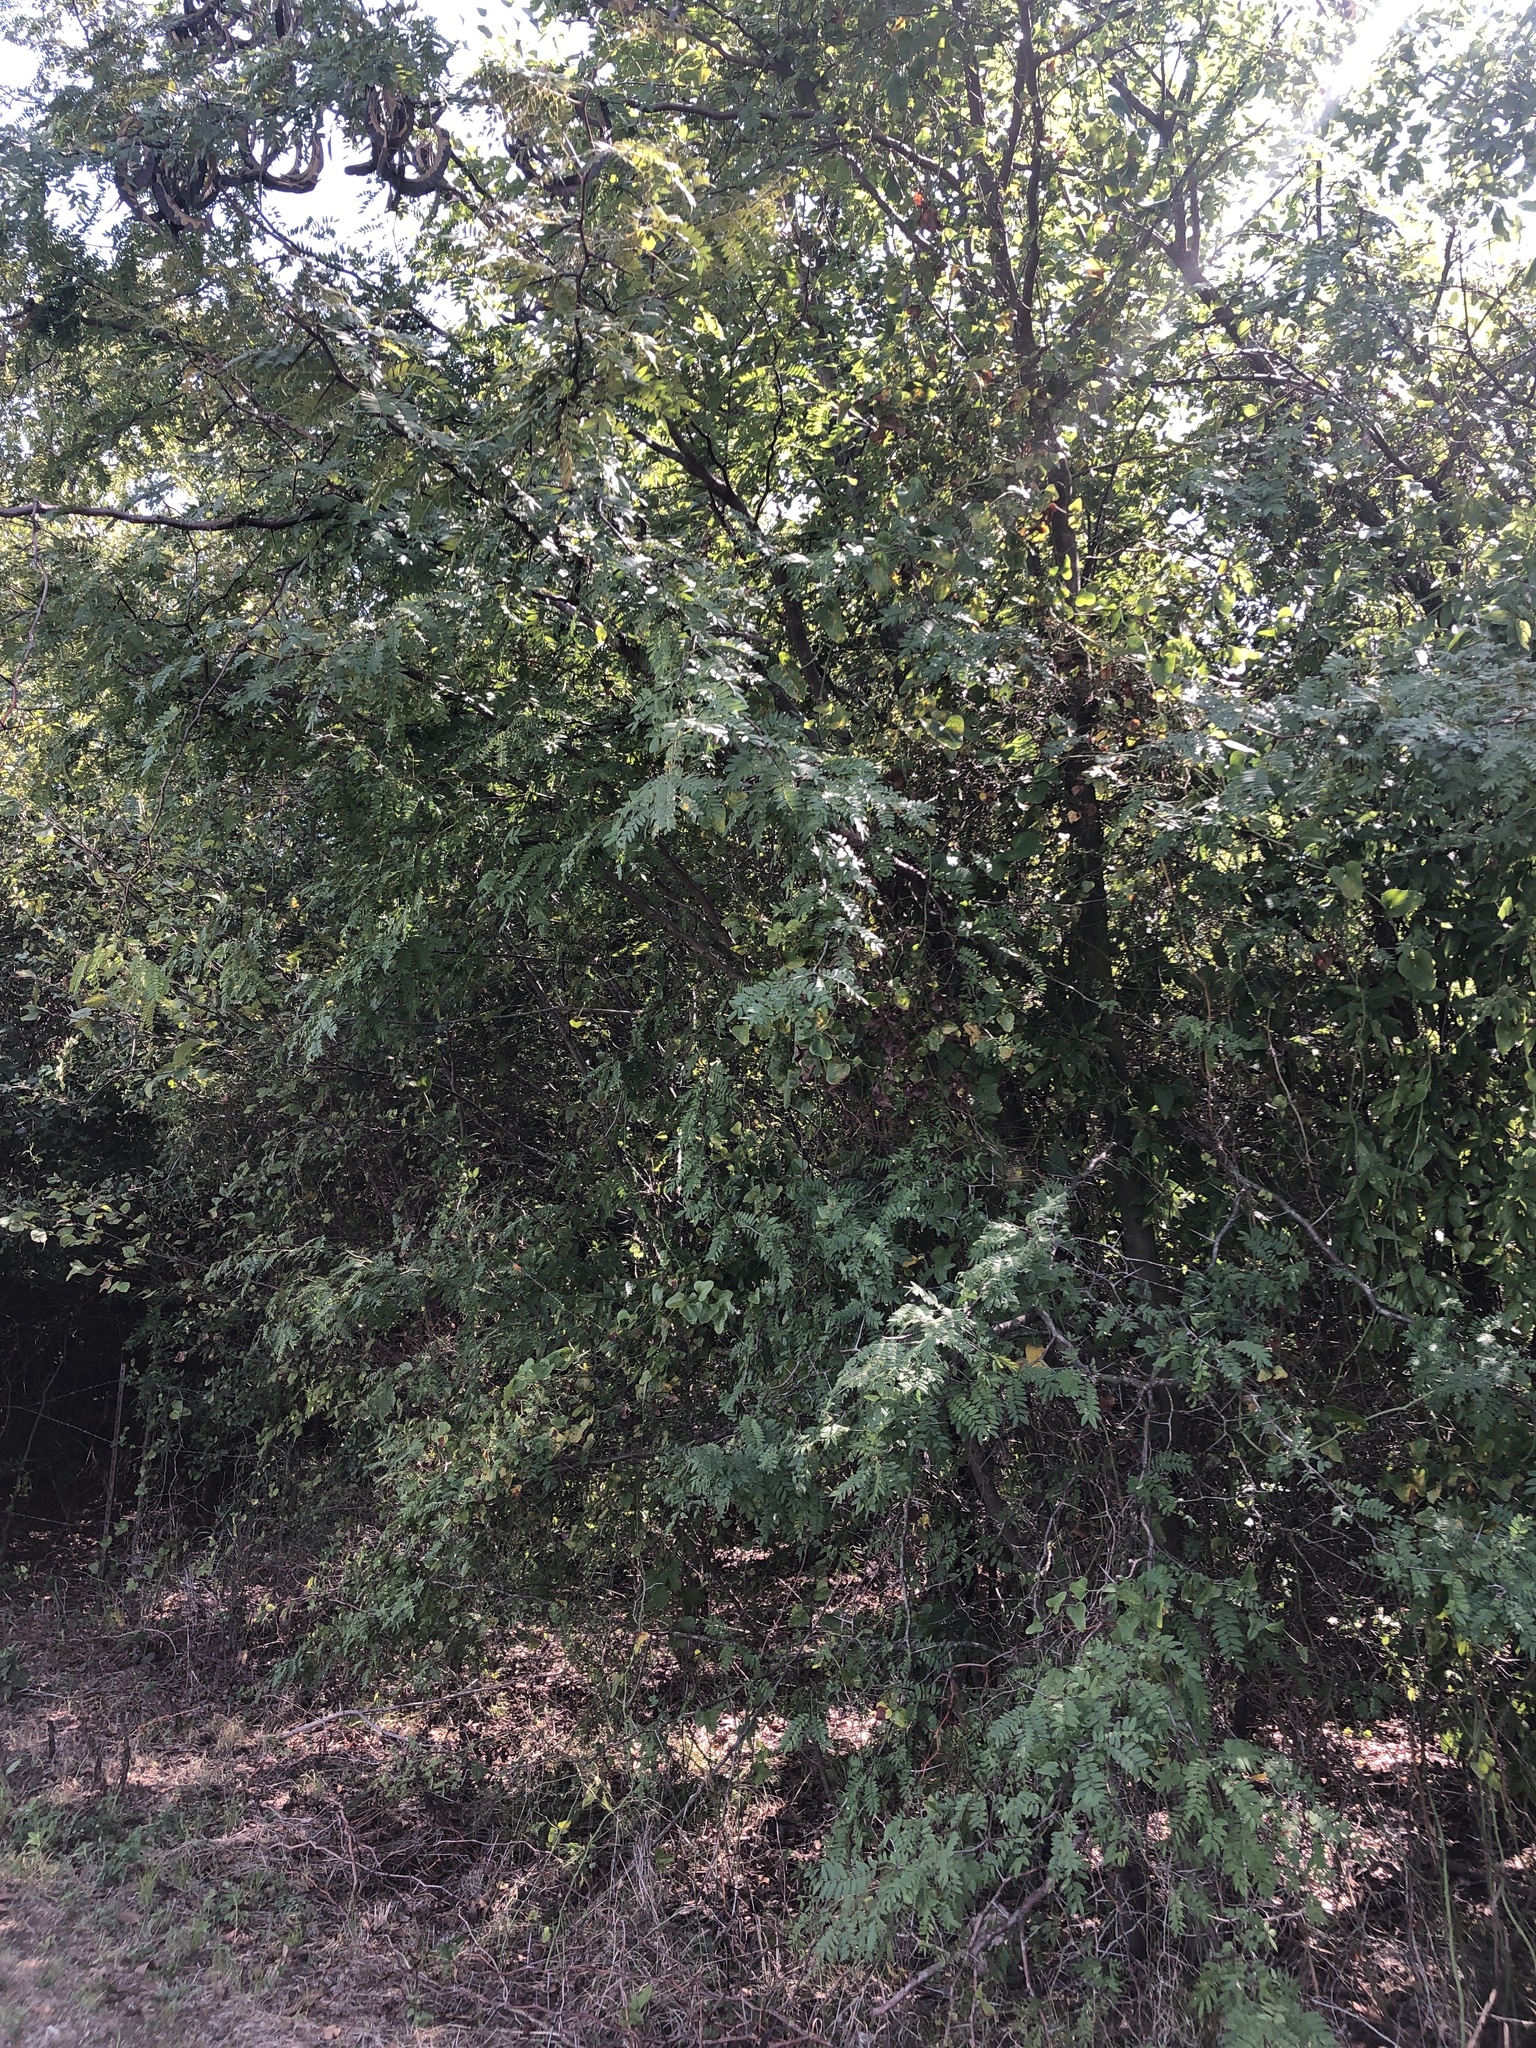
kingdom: Plantae
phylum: Tracheophyta
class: Magnoliopsida
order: Fabales
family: Fabaceae
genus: Gleditsia
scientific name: Gleditsia triacanthos
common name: Common honeylocust
